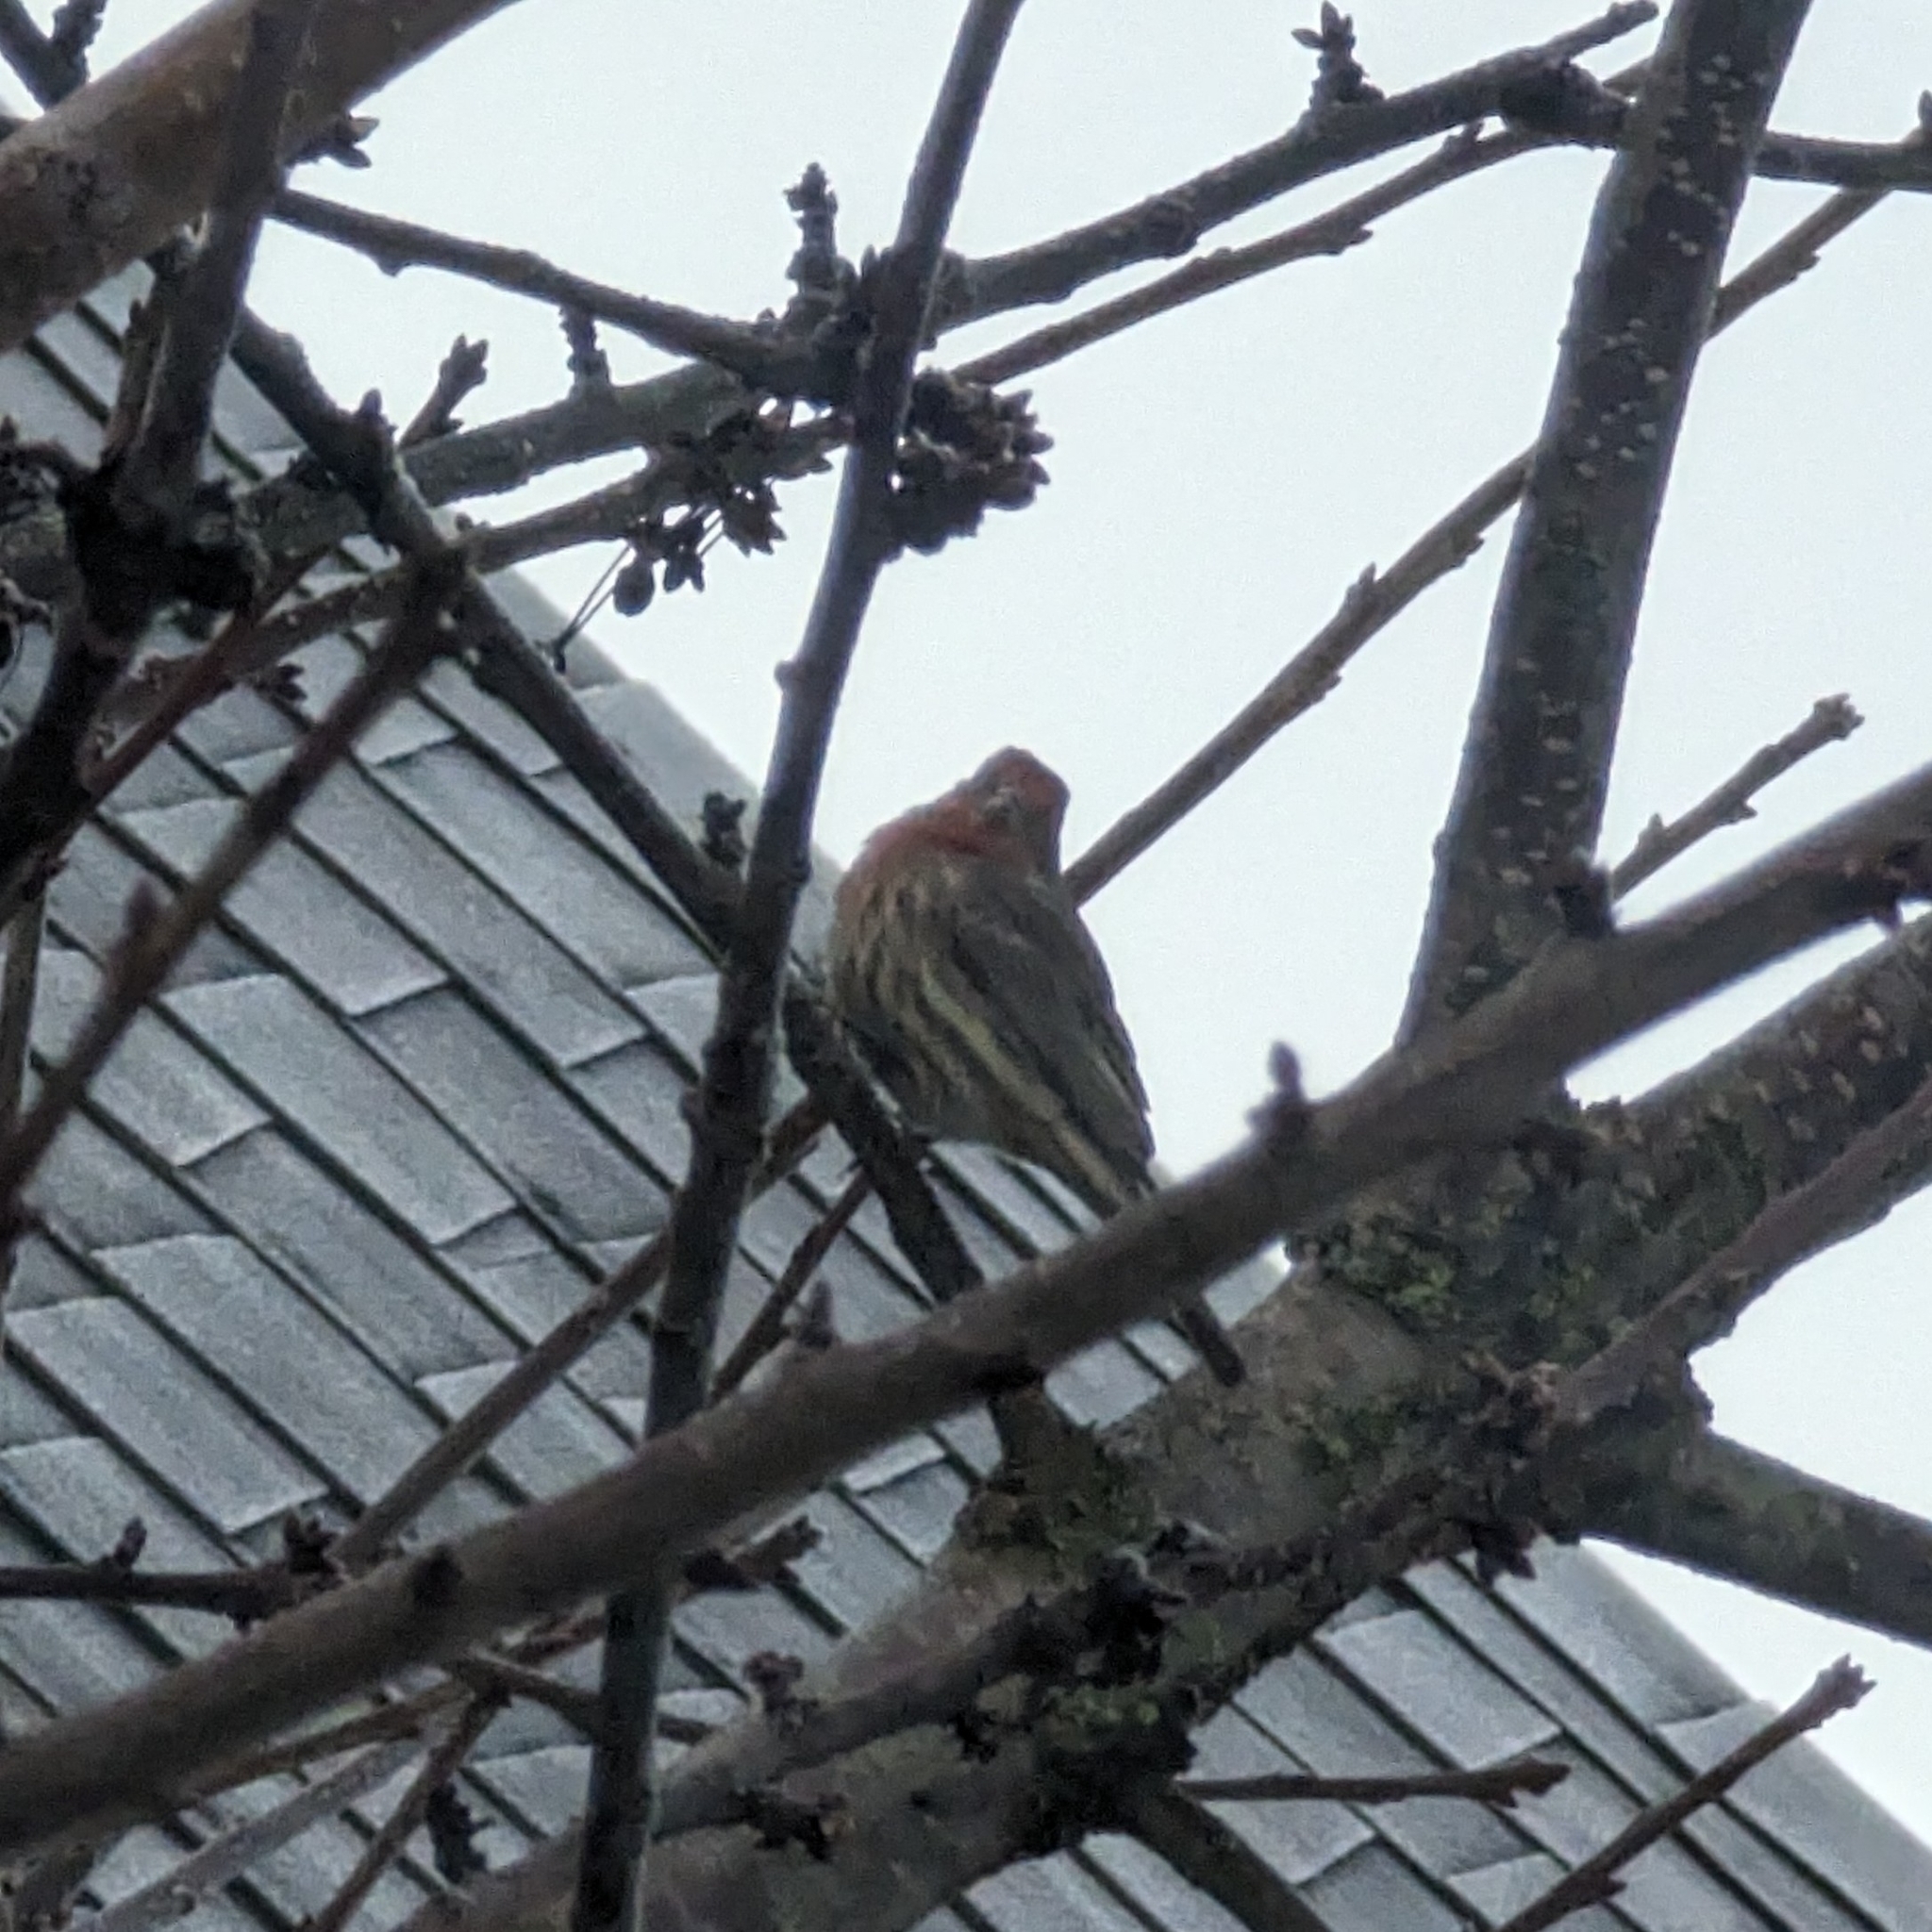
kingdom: Animalia
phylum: Chordata
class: Aves
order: Passeriformes
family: Fringillidae
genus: Haemorhous
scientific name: Haemorhous mexicanus
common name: House finch
